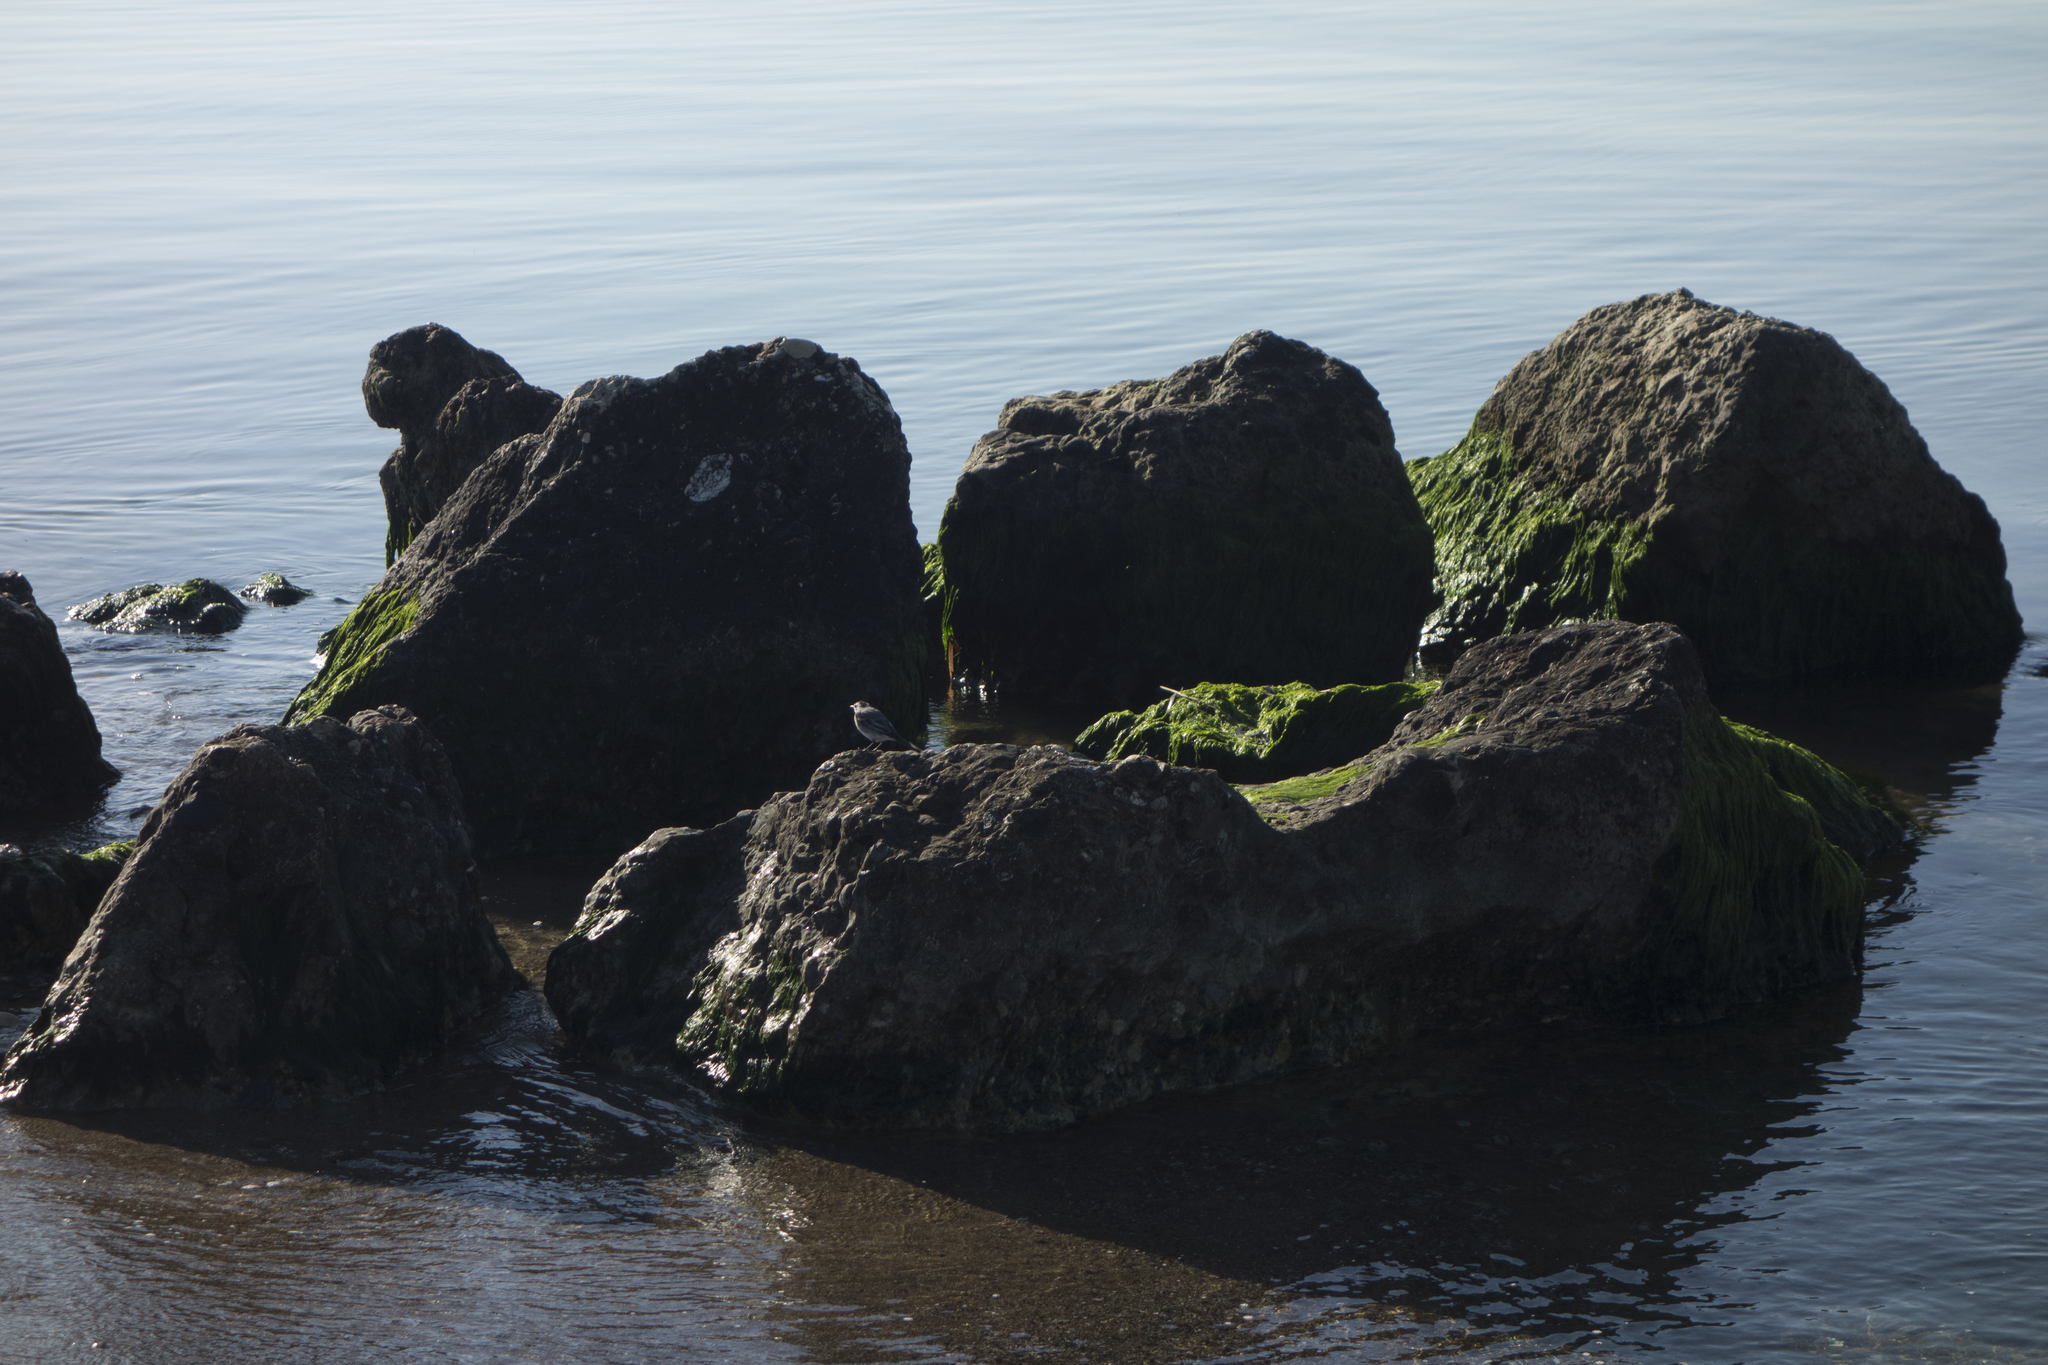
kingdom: Animalia
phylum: Chordata
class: Aves
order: Passeriformes
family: Motacillidae
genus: Motacilla
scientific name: Motacilla alba
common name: White wagtail
